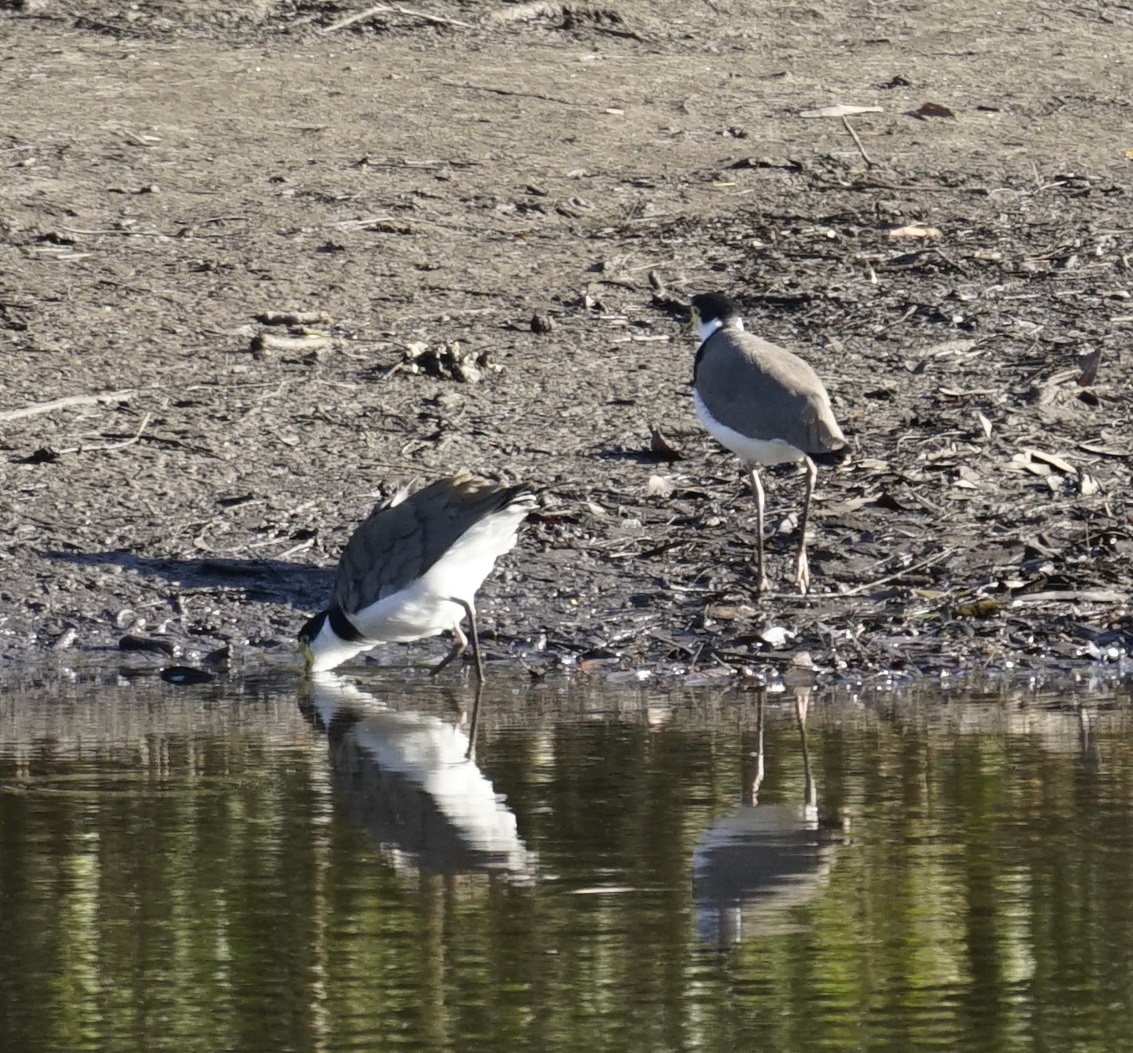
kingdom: Animalia
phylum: Chordata
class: Aves
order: Charadriiformes
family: Charadriidae
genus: Vanellus
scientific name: Vanellus miles
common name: Masked lapwing
